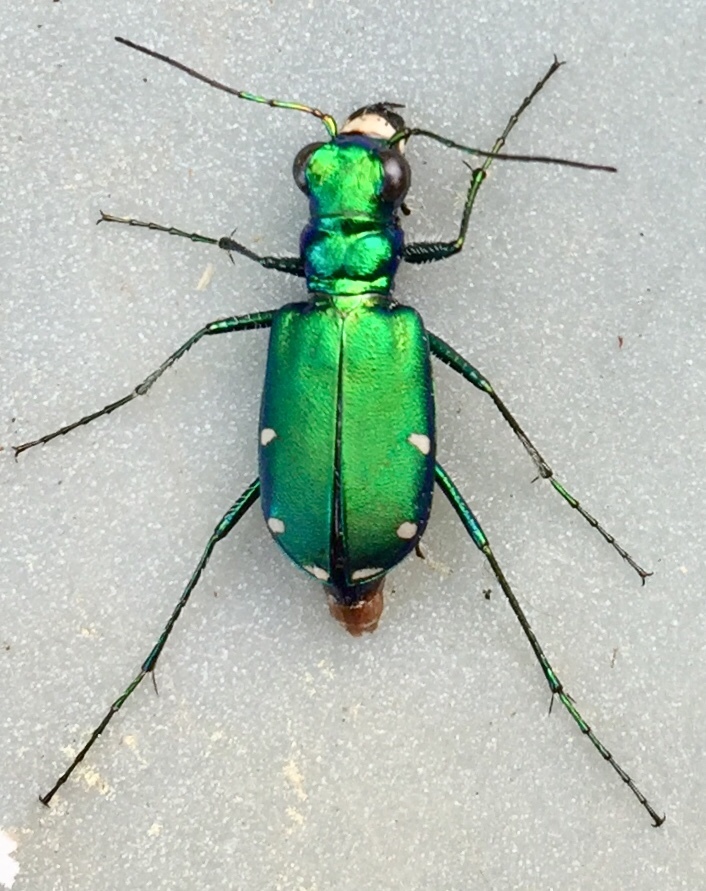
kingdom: Animalia
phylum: Arthropoda
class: Insecta
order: Coleoptera
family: Carabidae
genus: Cicindela
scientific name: Cicindela sexguttata
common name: Six-spotted tiger beetle
